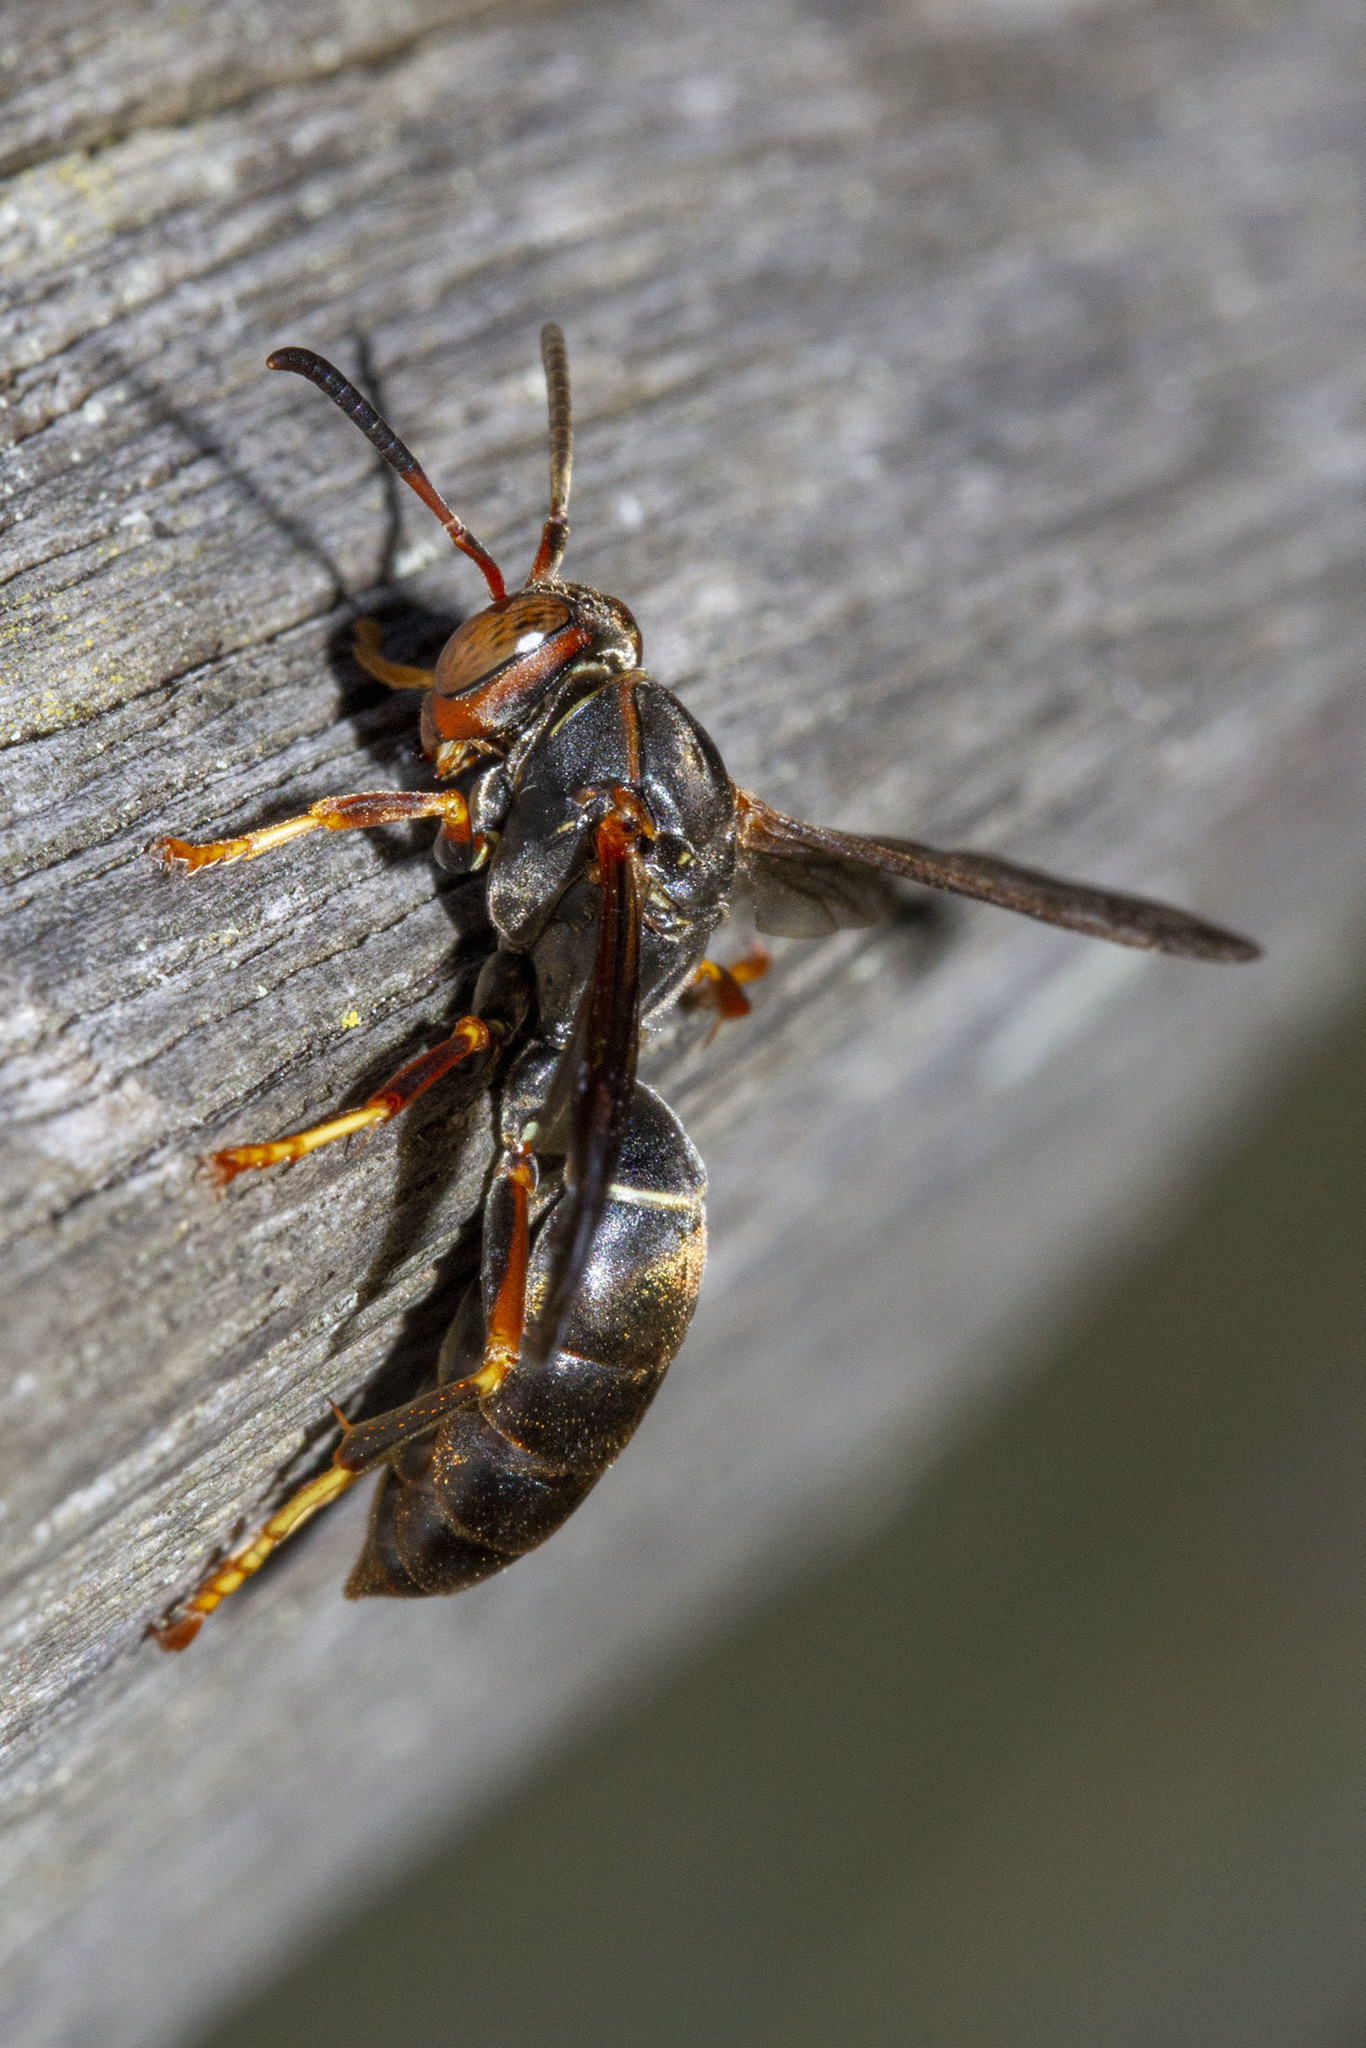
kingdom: Animalia
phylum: Arthropoda
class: Insecta
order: Hymenoptera
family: Eumenidae
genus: Polistes
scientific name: Polistes fuscatus
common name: Dark paper wasp
